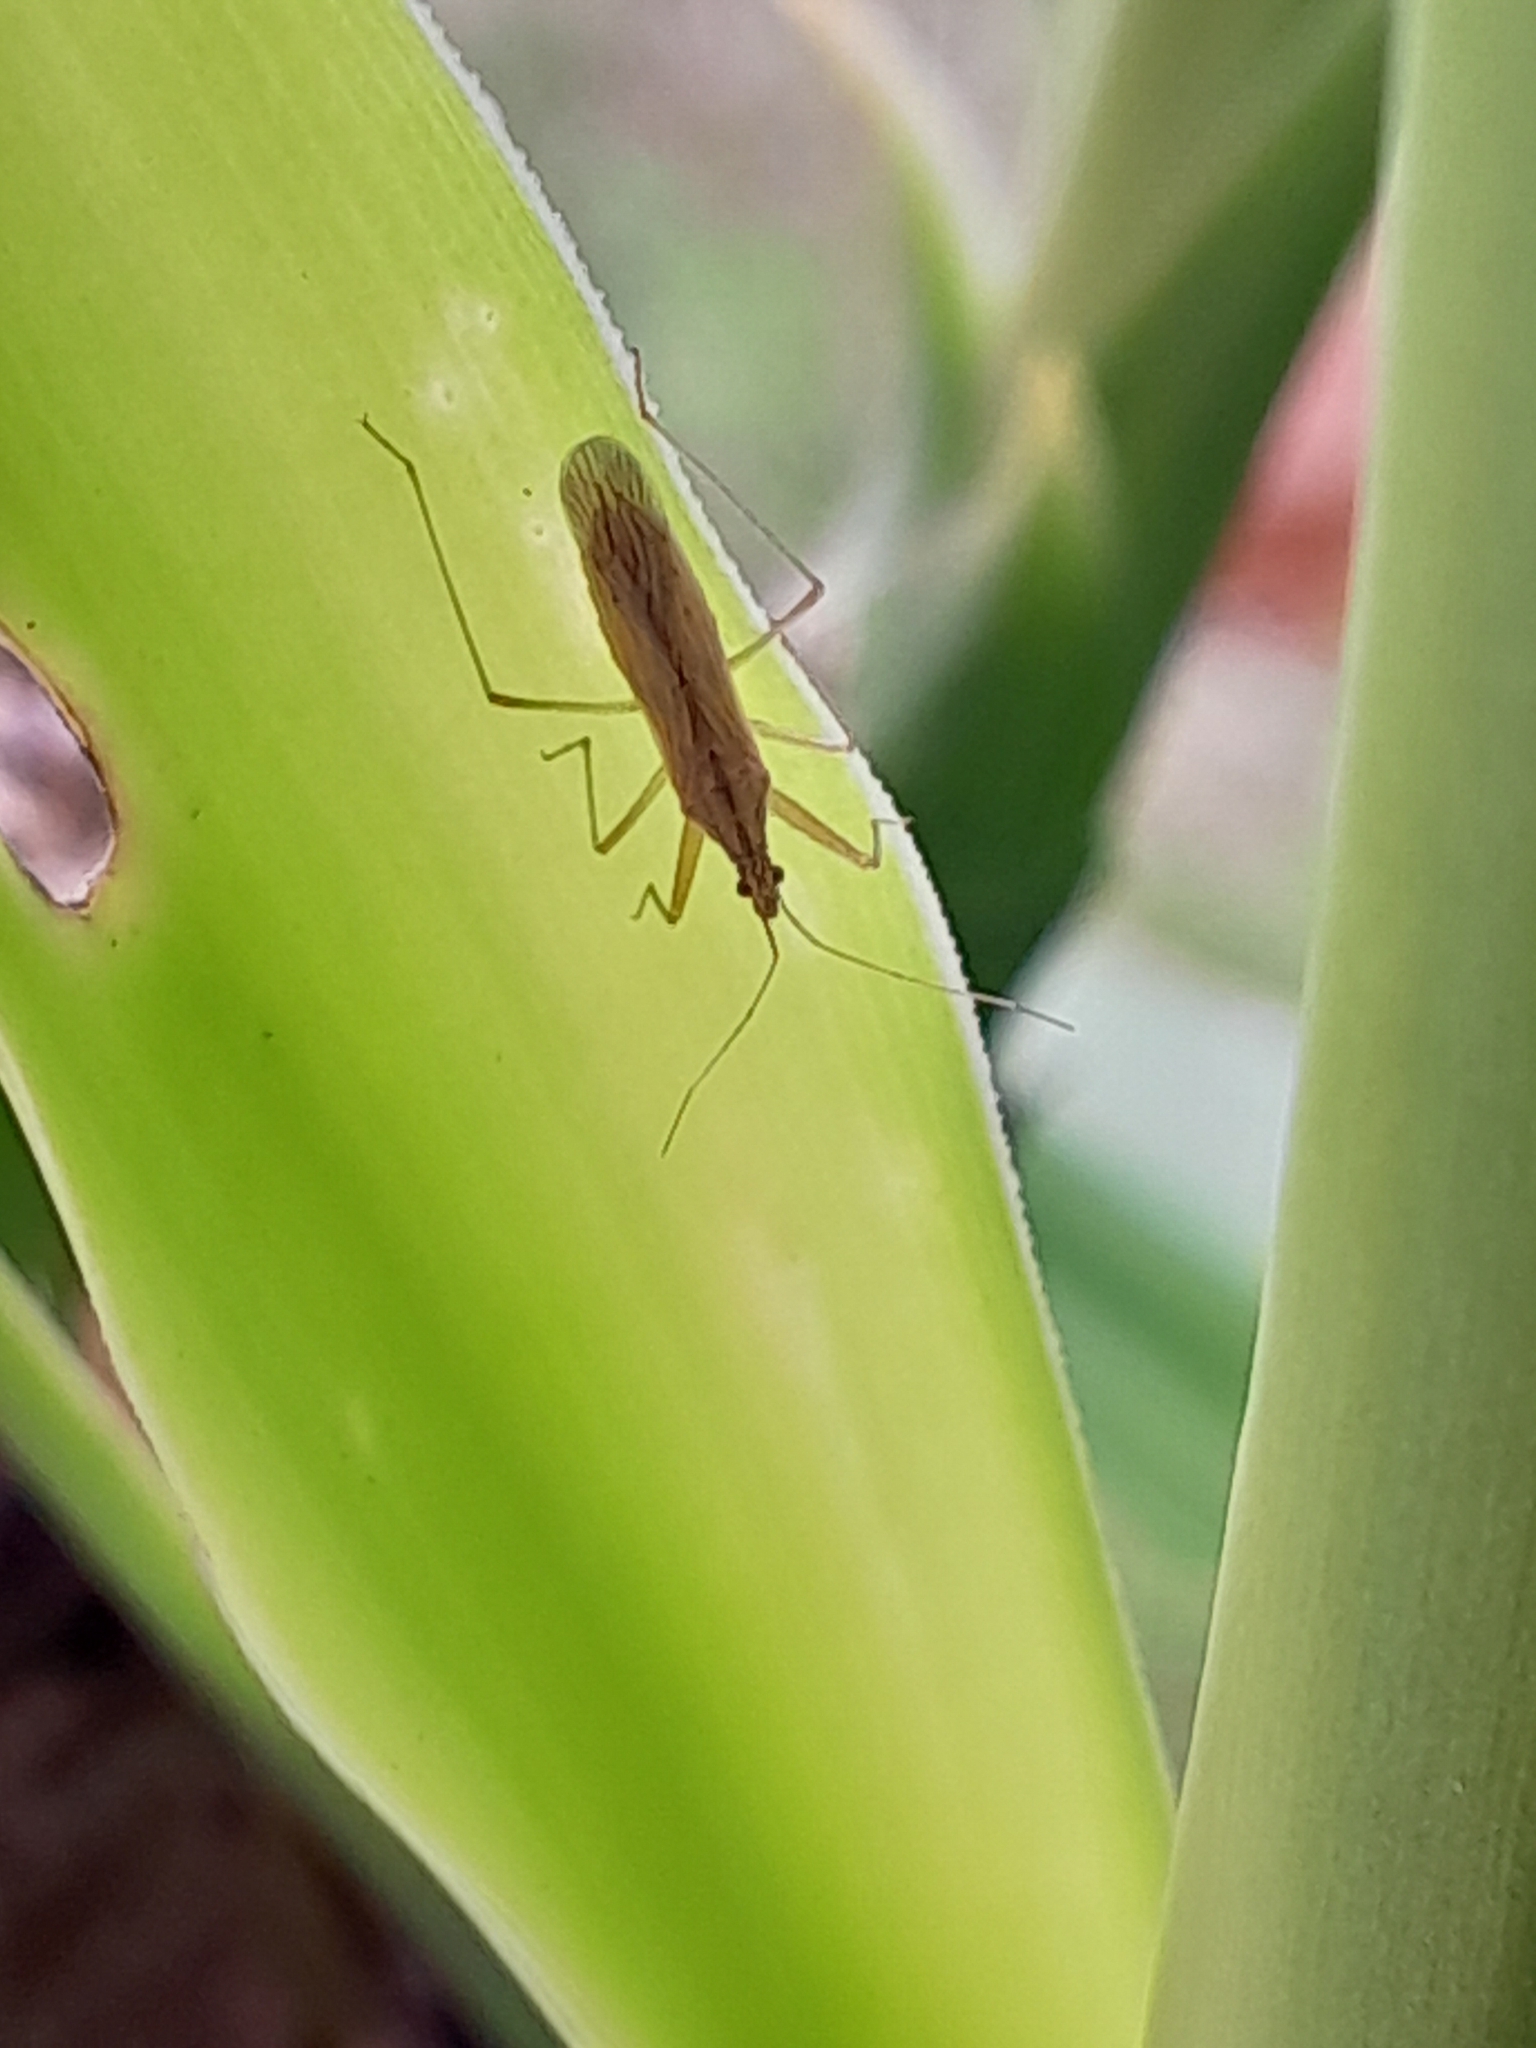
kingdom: Animalia
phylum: Arthropoda
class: Insecta
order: Hemiptera
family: Nabidae
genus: Nabis
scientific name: Nabis capsiformis
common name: Pale damsel bug
